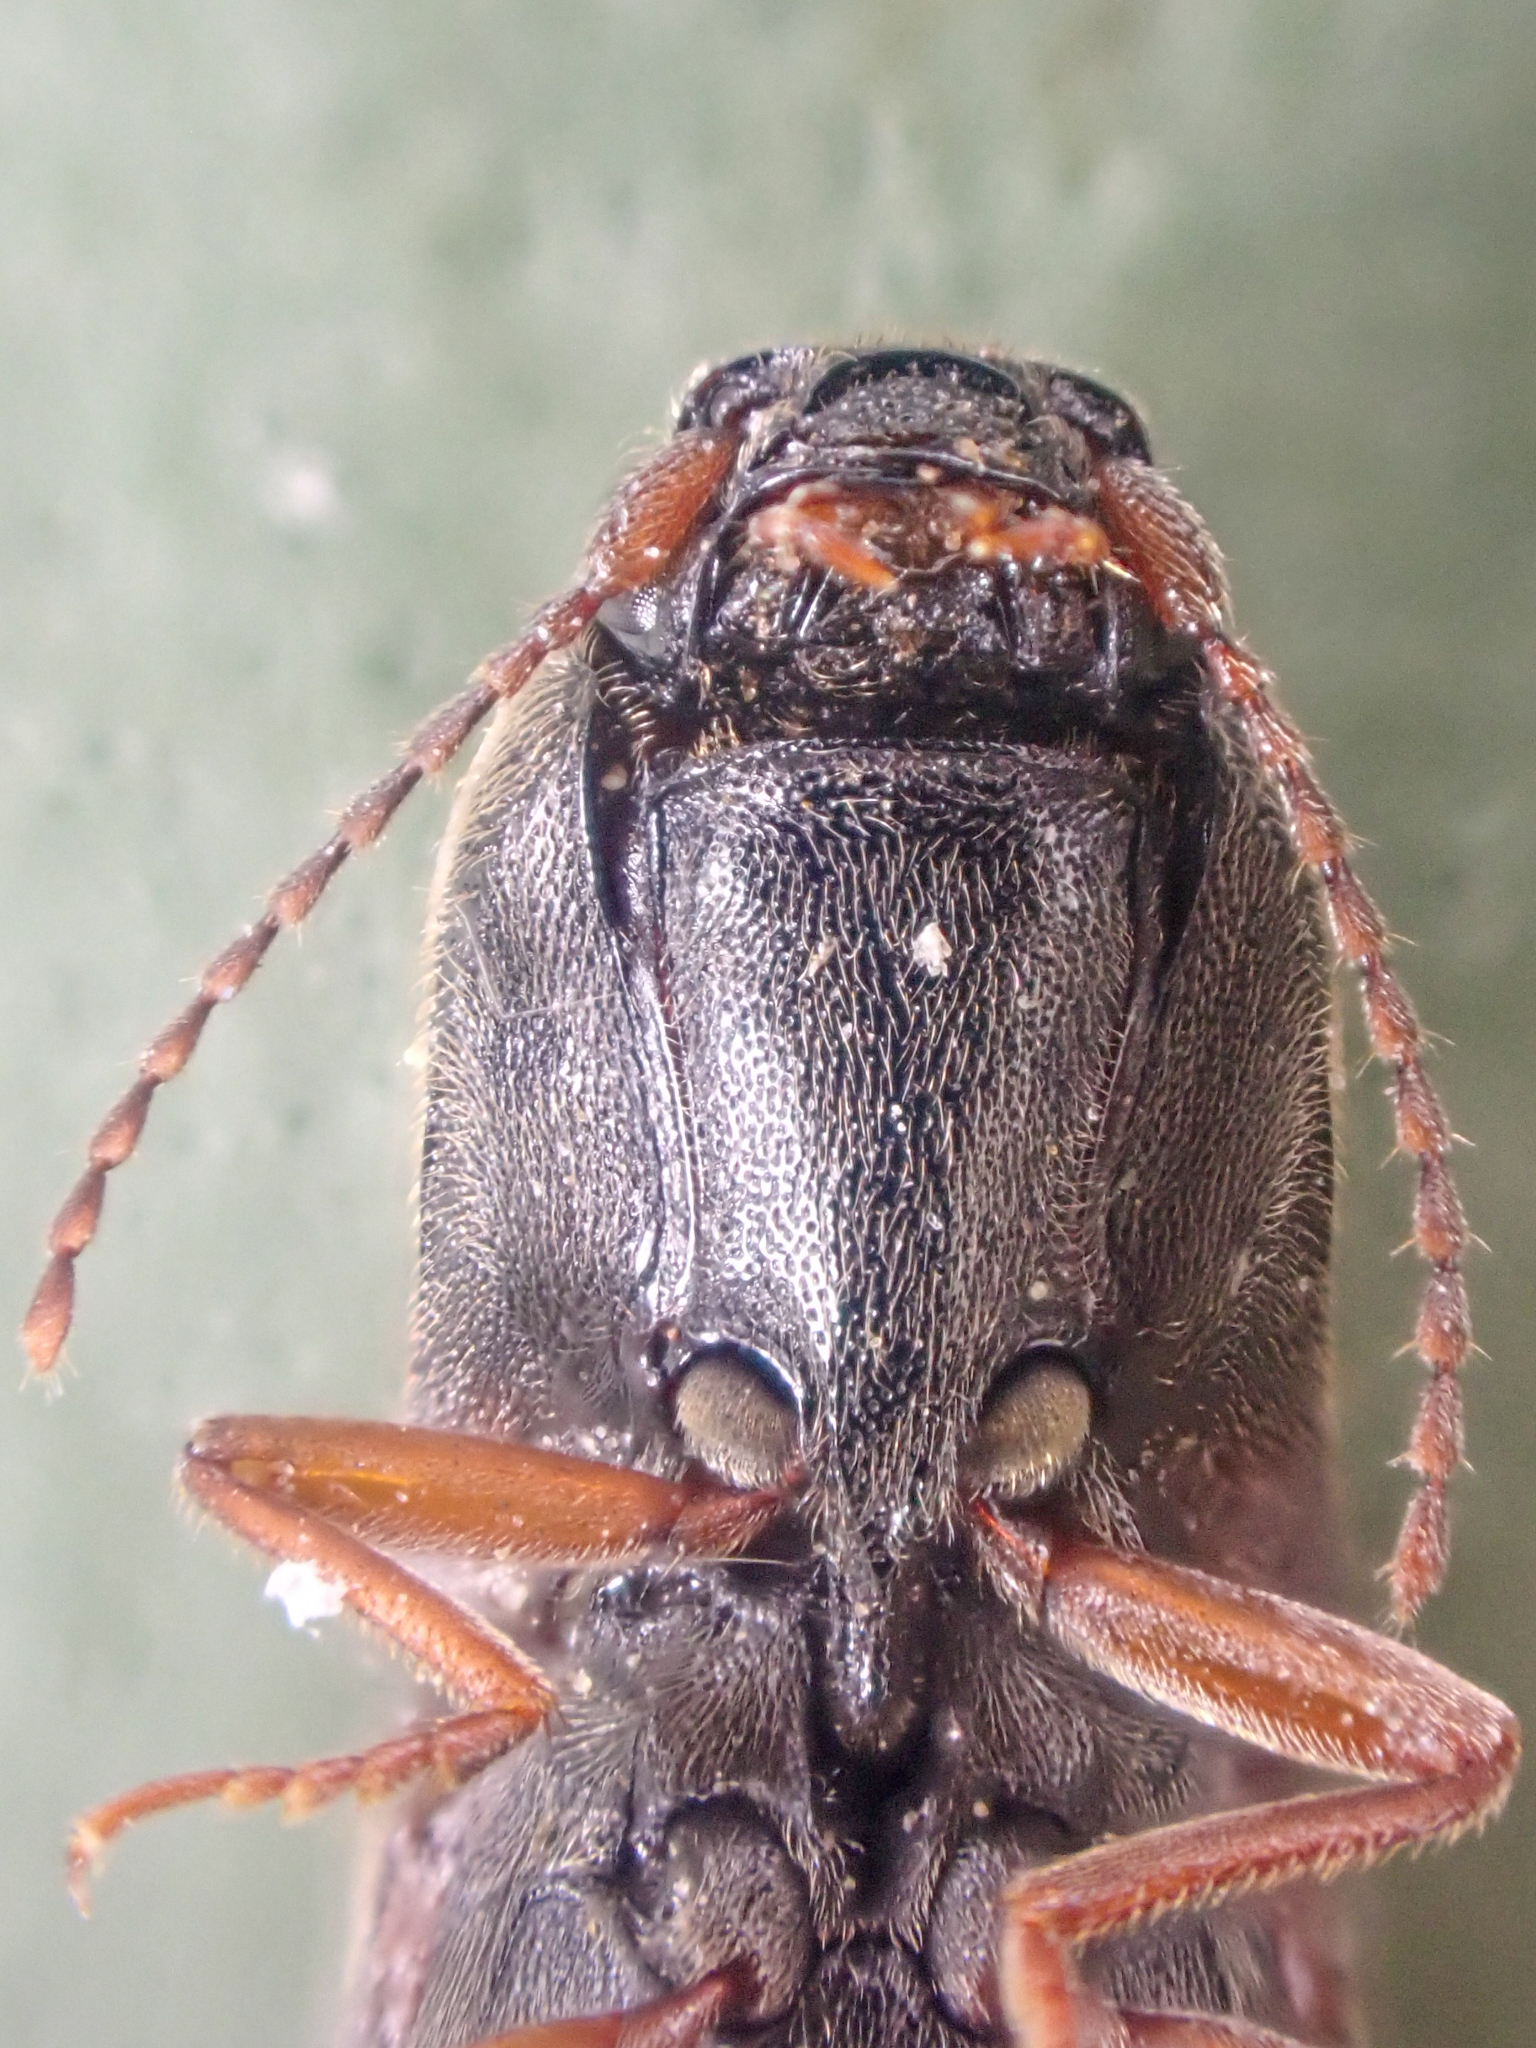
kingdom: Animalia
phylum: Arthropoda
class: Insecta
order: Coleoptera
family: Elateridae
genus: Agriotes
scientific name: Agriotes ferrugineipennis
